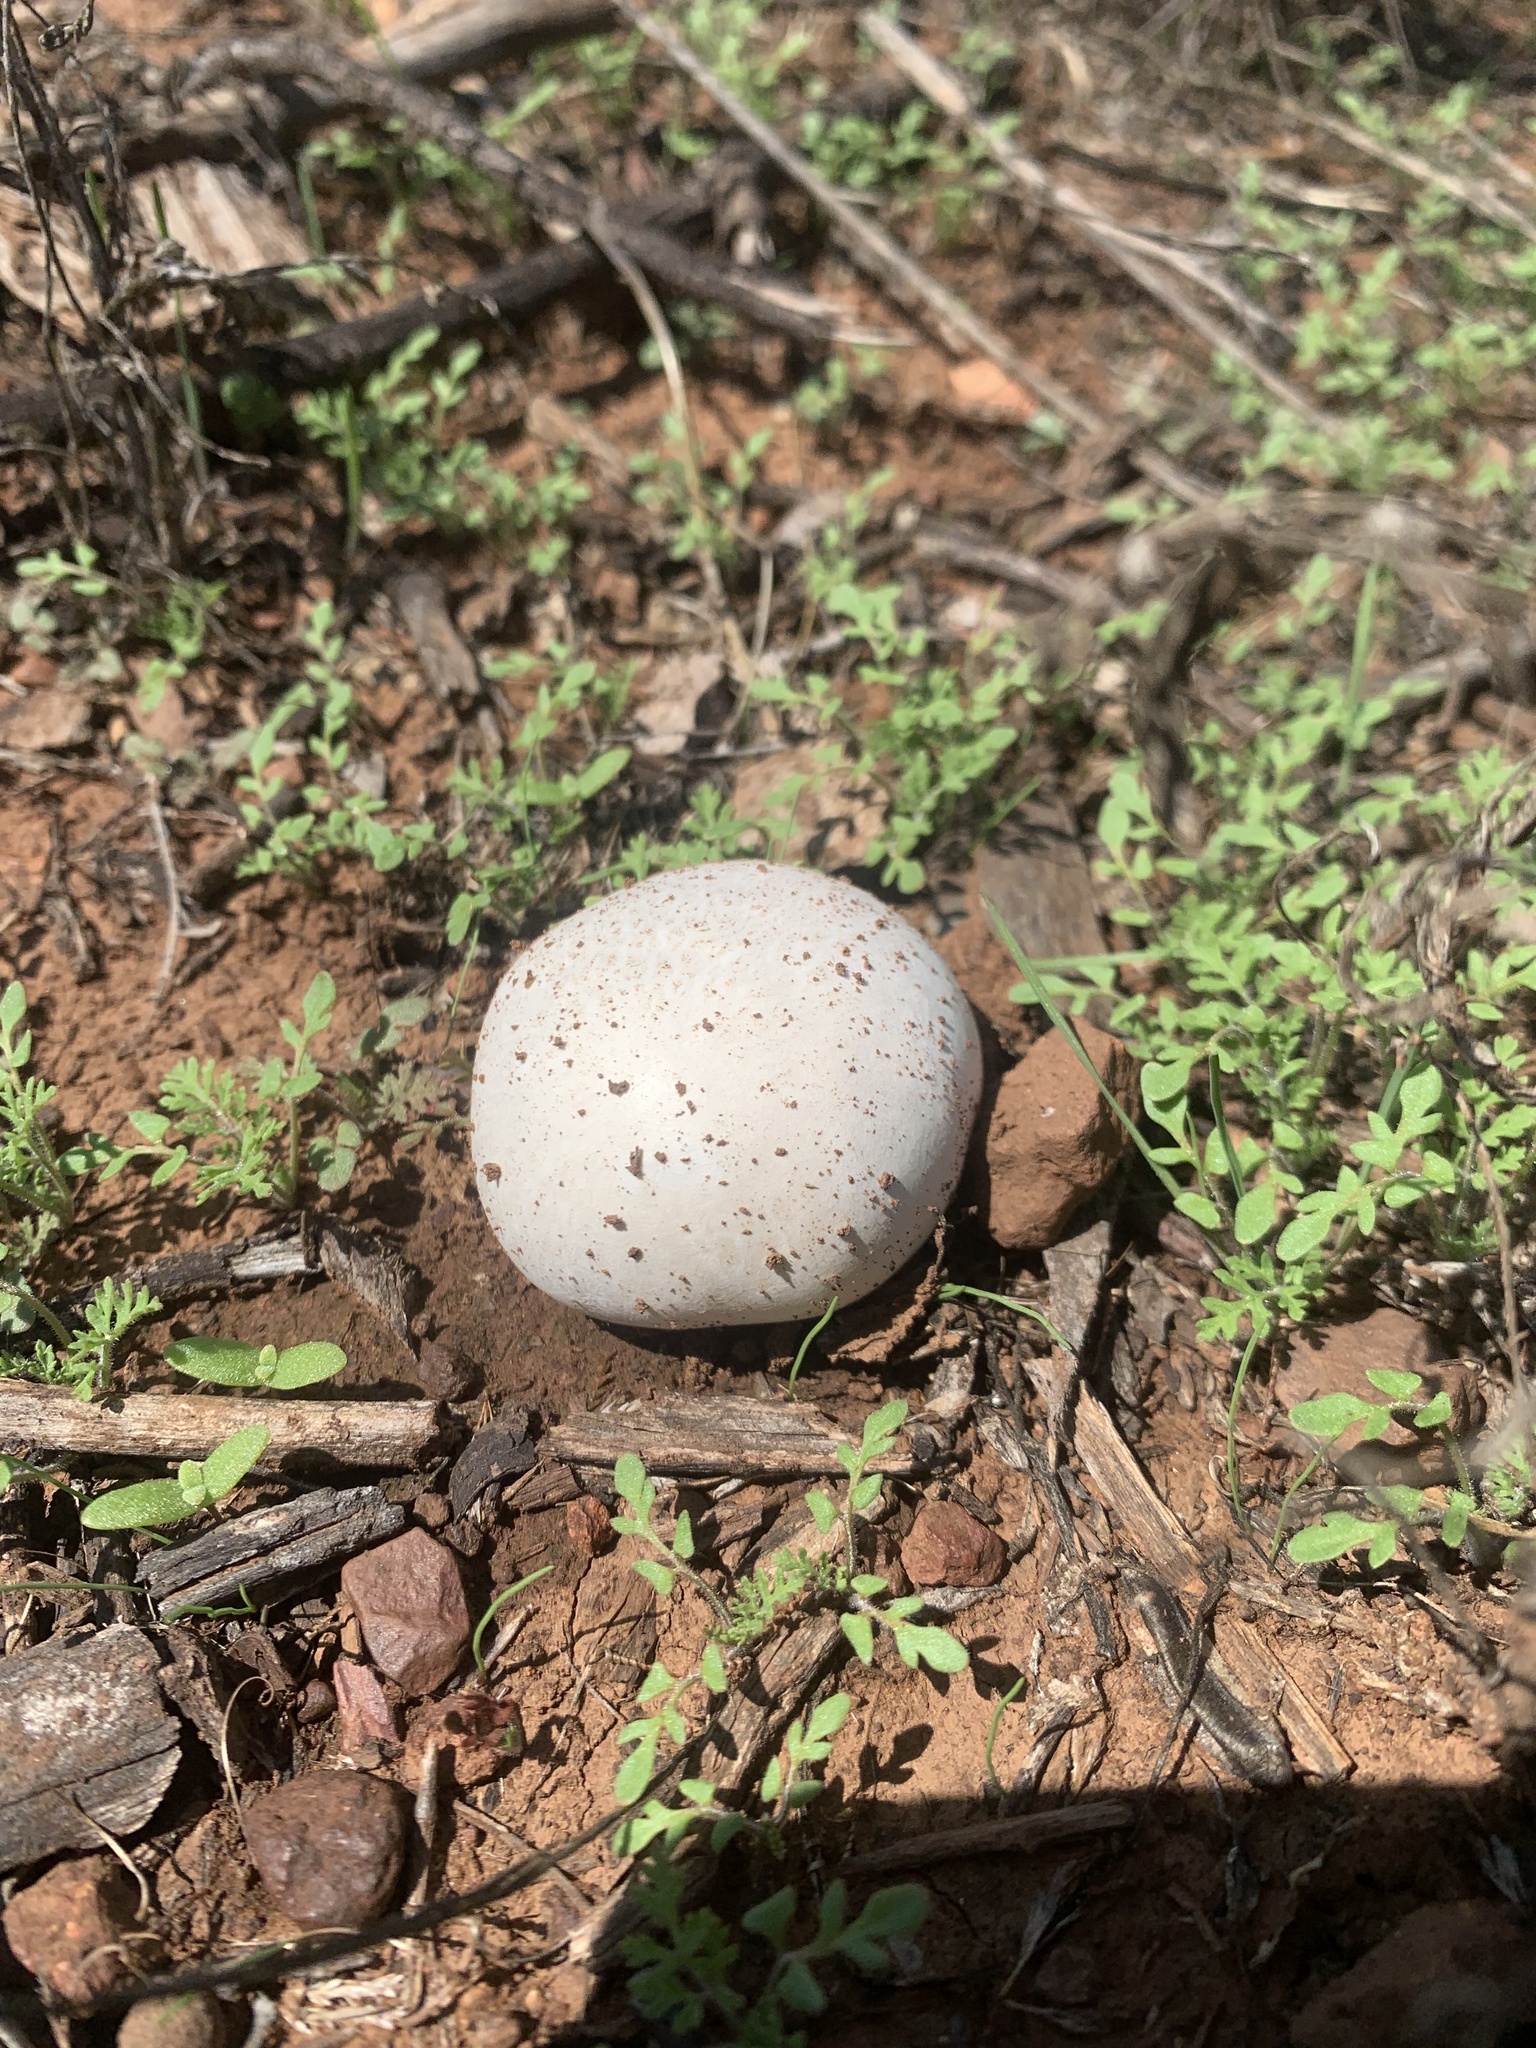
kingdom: Fungi
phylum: Basidiomycota
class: Agaricomycetes
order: Agaricales
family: Lycoperdaceae
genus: Bovista
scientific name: Bovista plumbea
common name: Grey puffball
